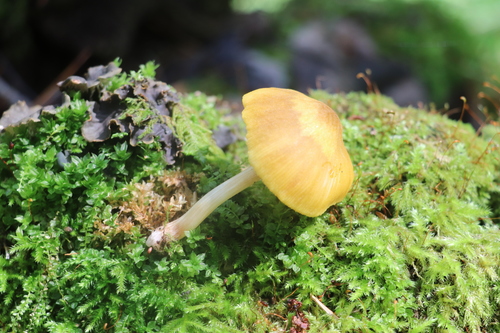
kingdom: Fungi
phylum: Basidiomycota
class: Agaricomycetes
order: Agaricales
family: Pluteaceae
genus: Pluteus
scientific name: Pluteus leoninus
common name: Lion shield
